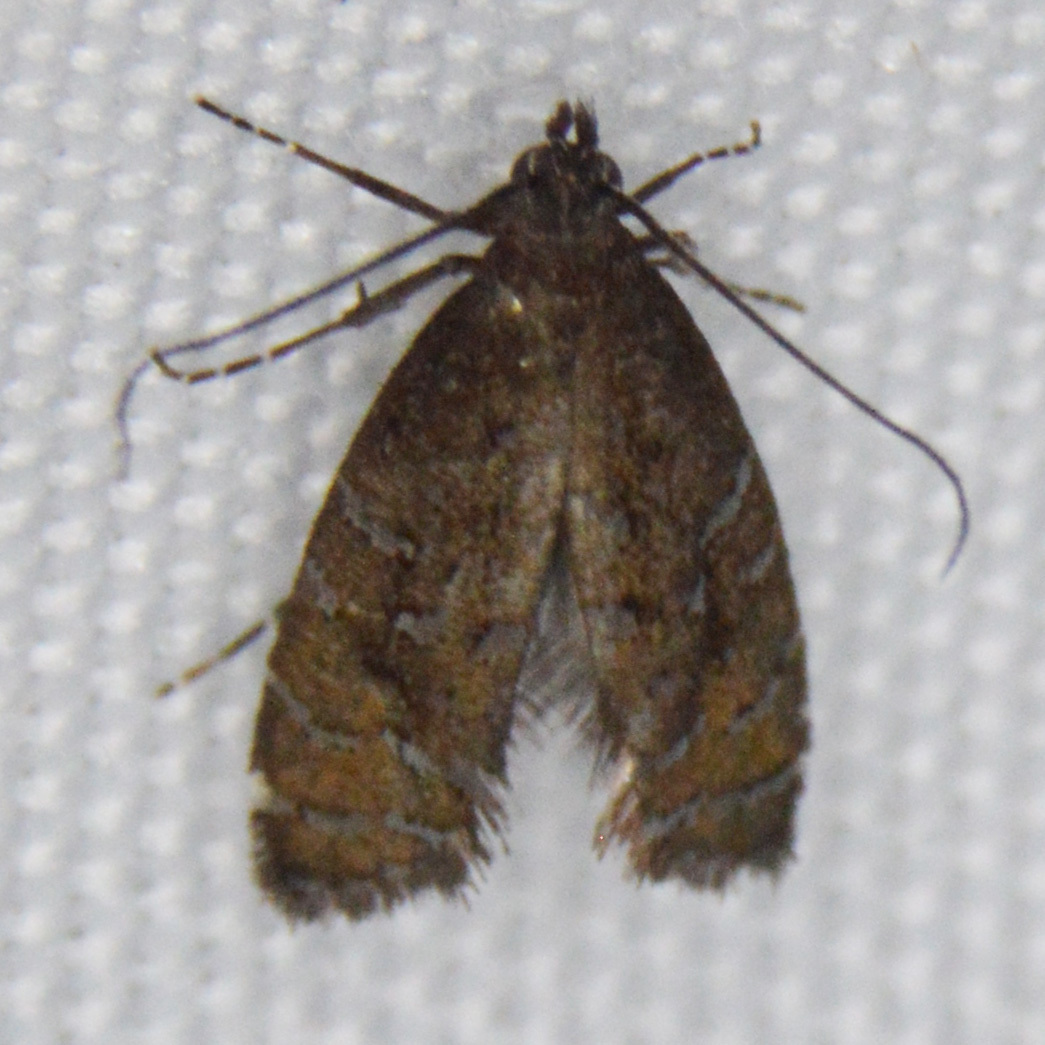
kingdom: Animalia
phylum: Arthropoda
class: Insecta
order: Lepidoptera
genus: Drymoana
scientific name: Drymoana
